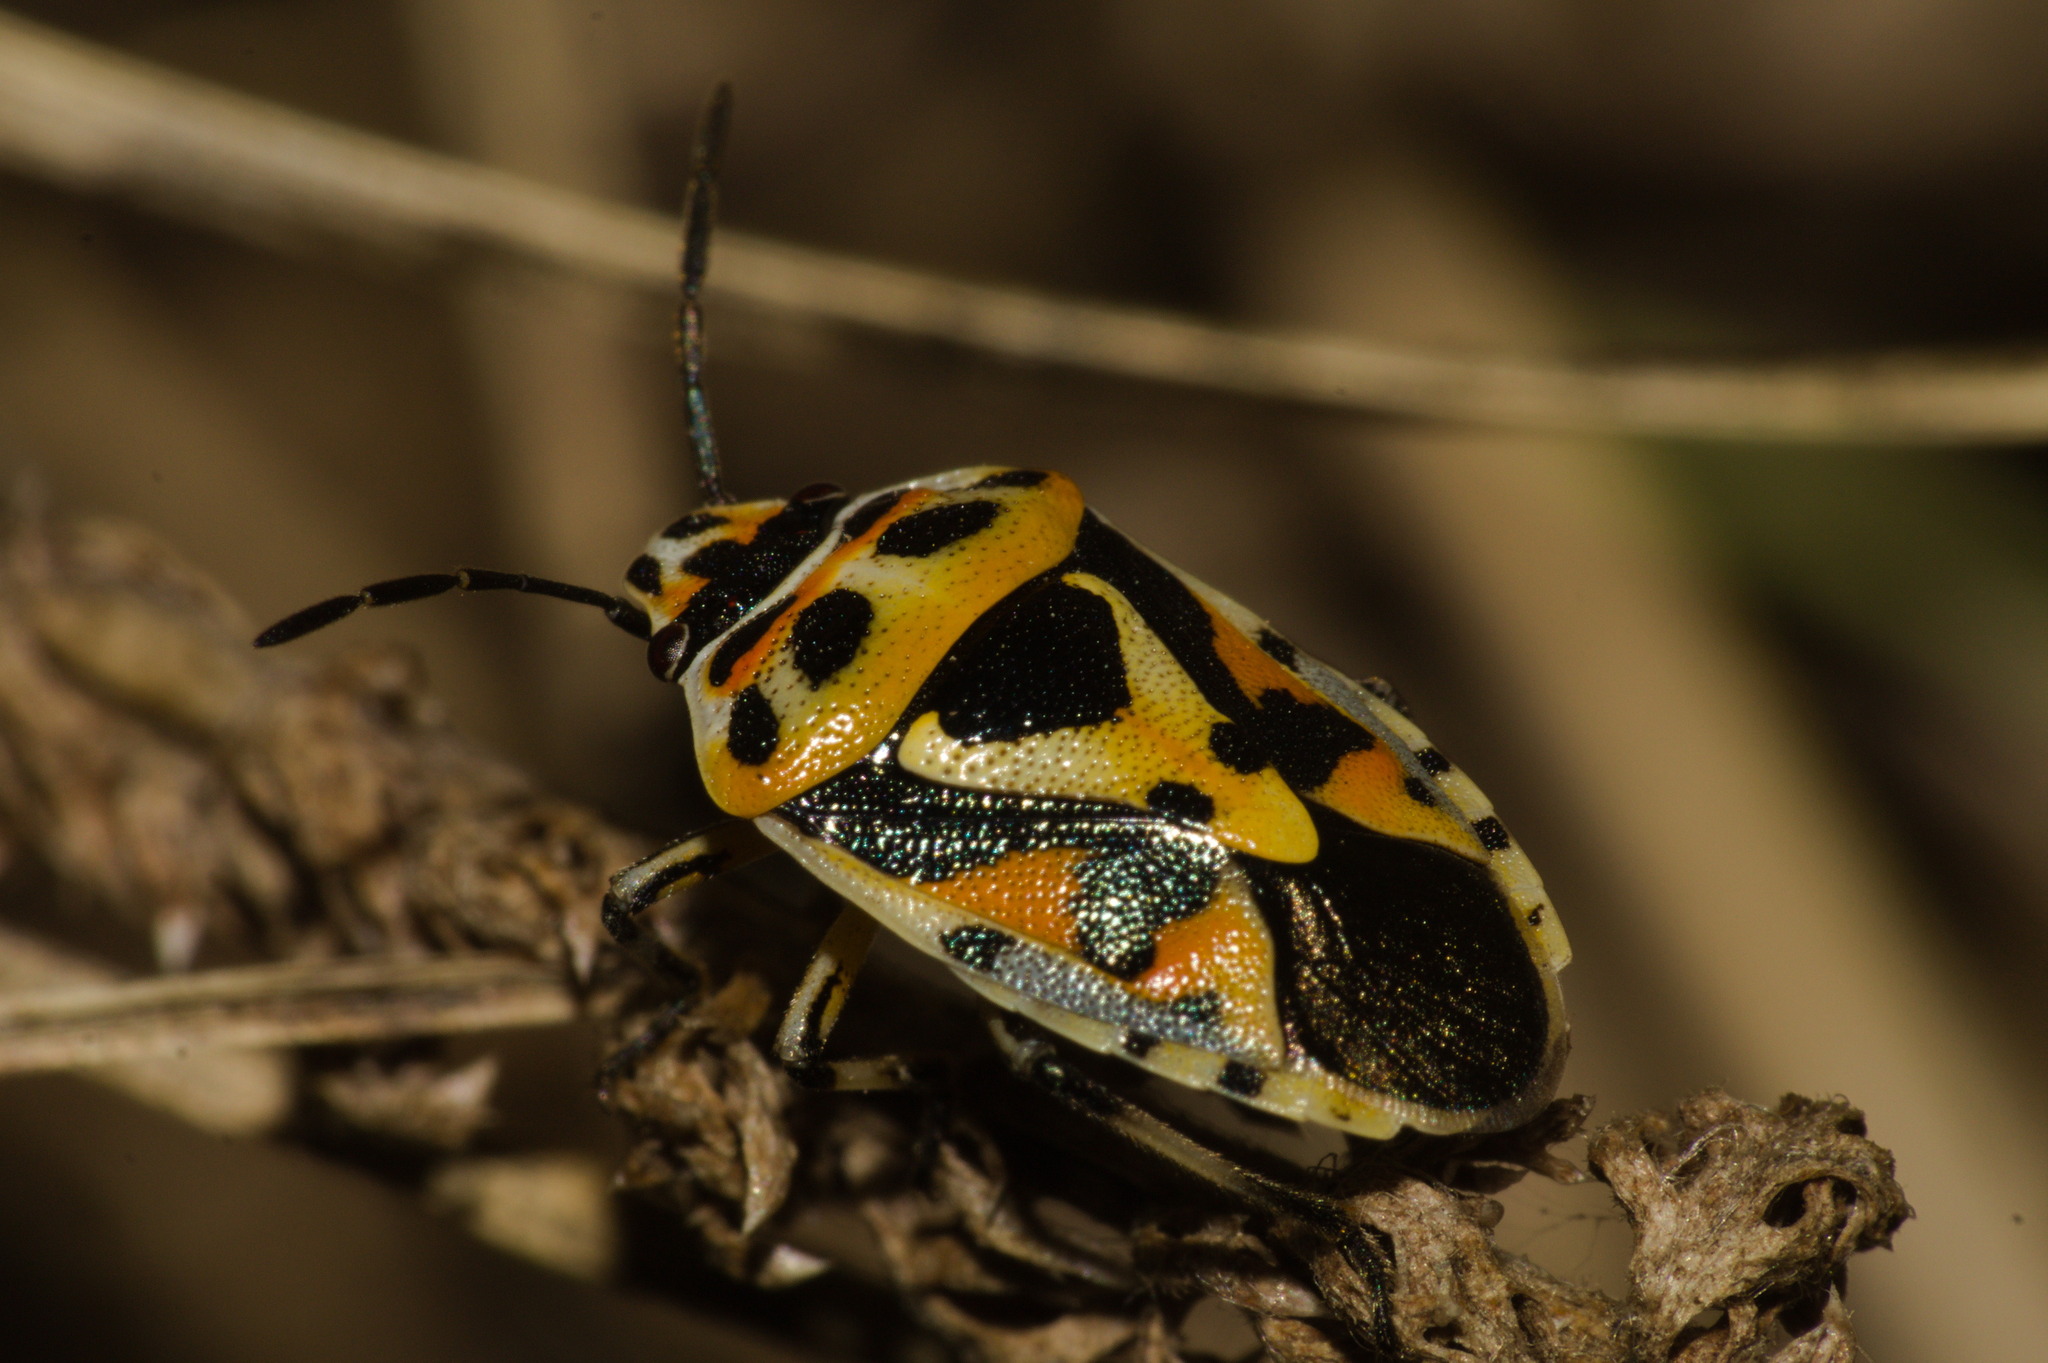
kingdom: Animalia
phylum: Arthropoda
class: Insecta
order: Hemiptera
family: Pentatomidae
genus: Eurydema
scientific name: Eurydema ornata
